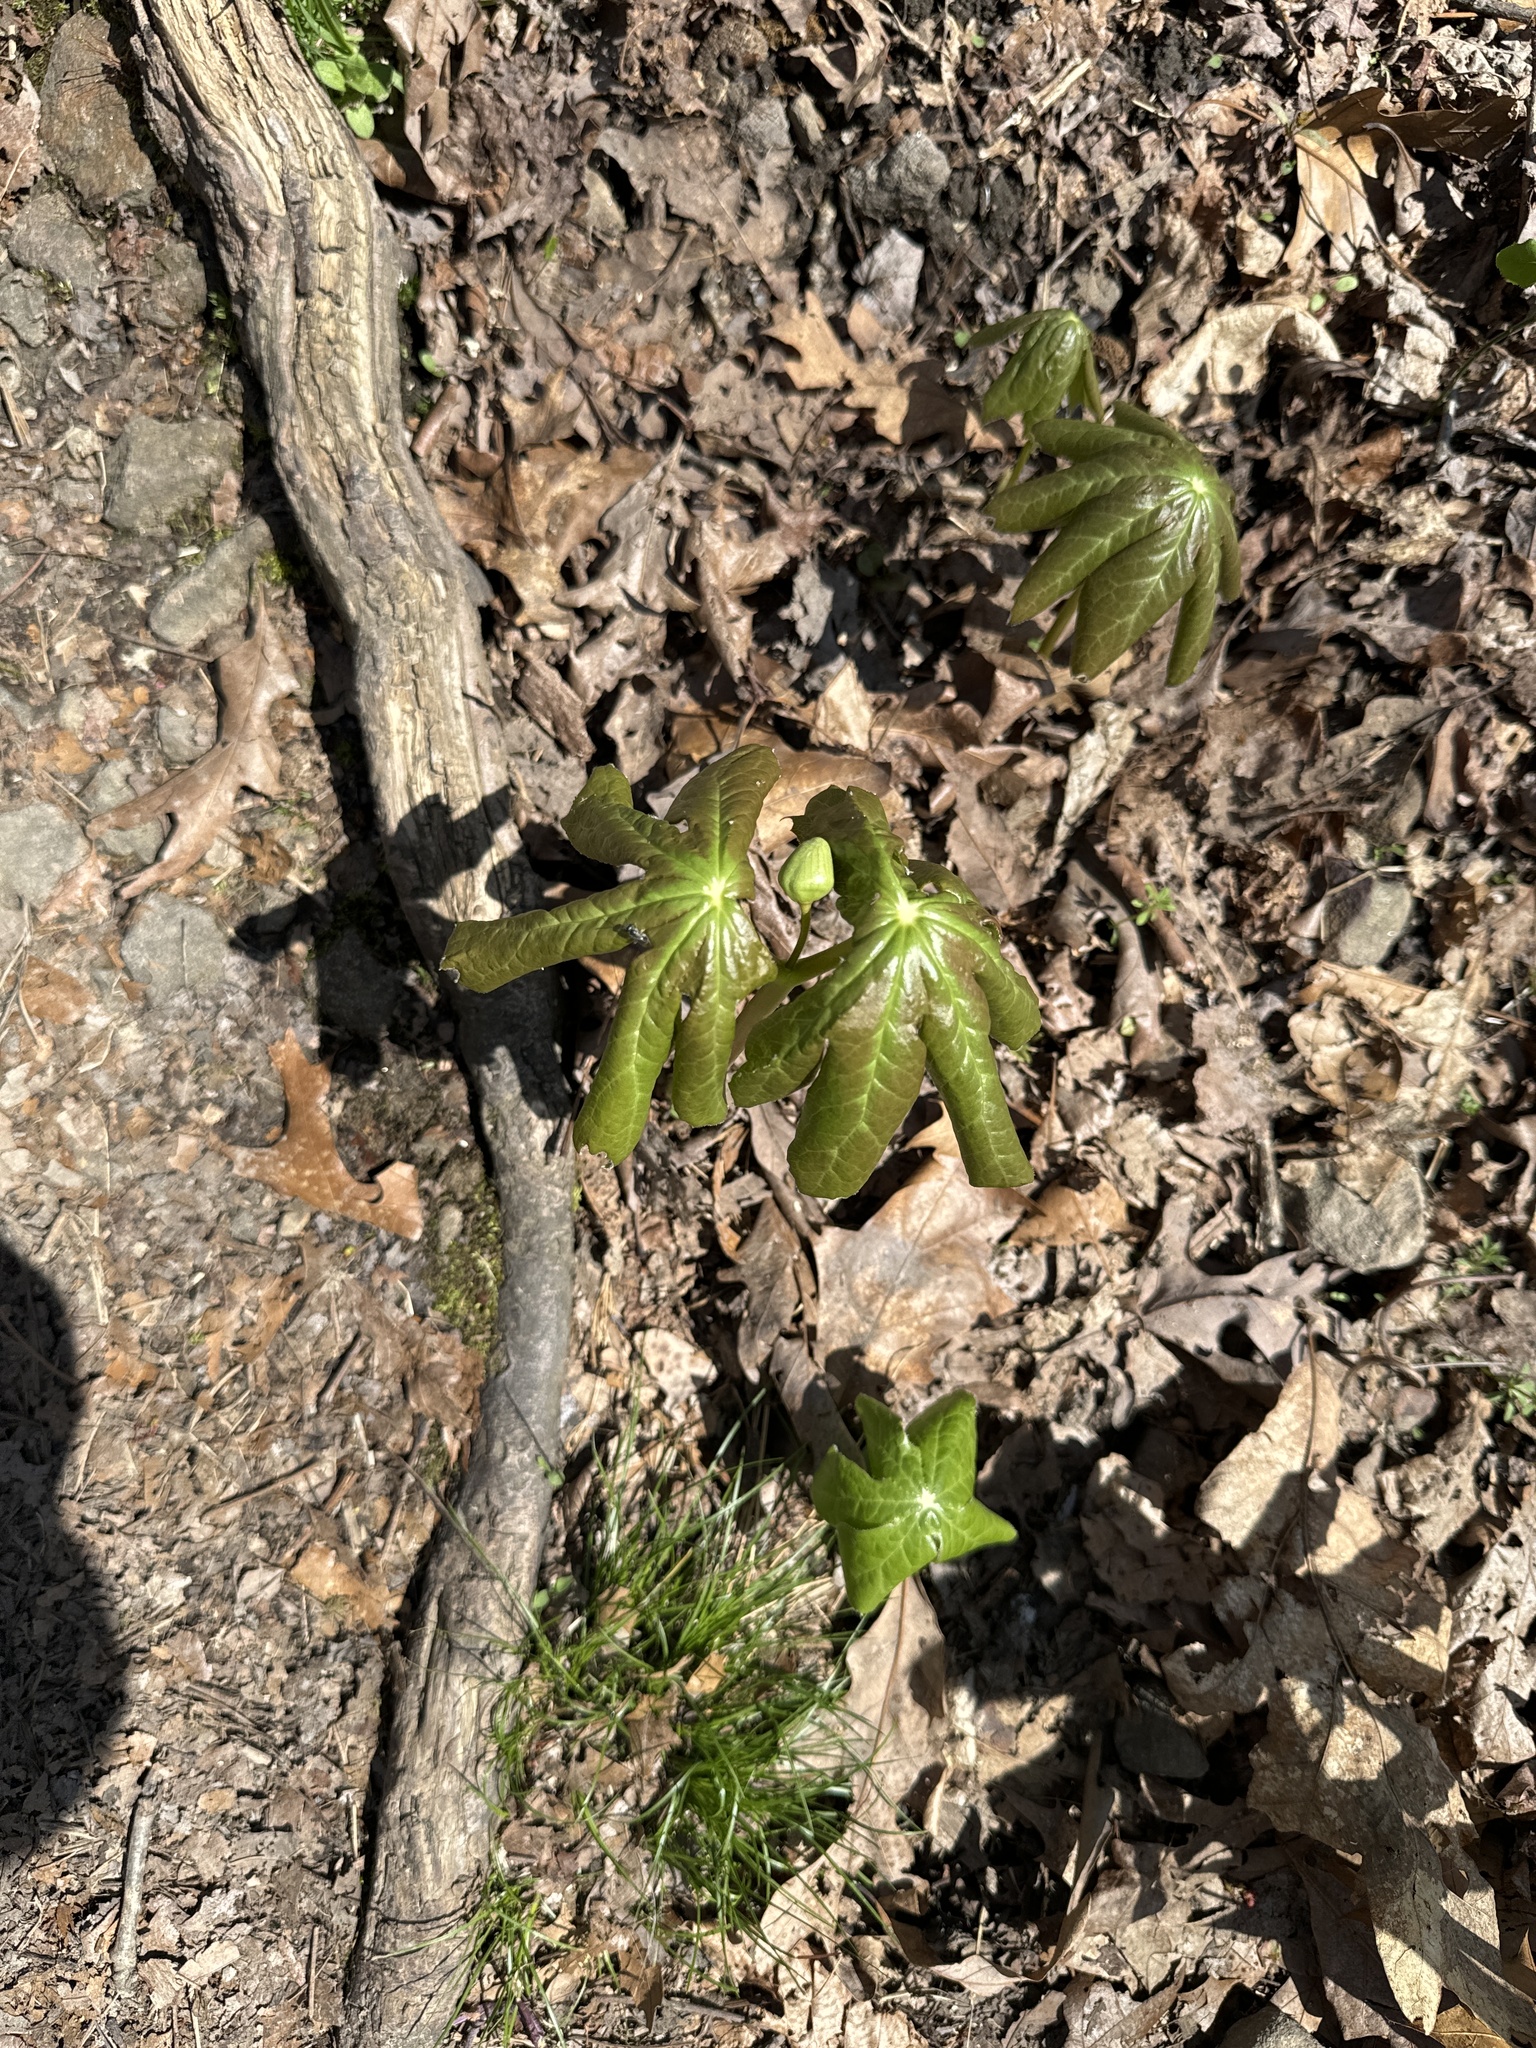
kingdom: Plantae
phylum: Tracheophyta
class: Magnoliopsida
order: Ranunculales
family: Berberidaceae
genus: Podophyllum
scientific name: Podophyllum peltatum
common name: Wild mandrake
